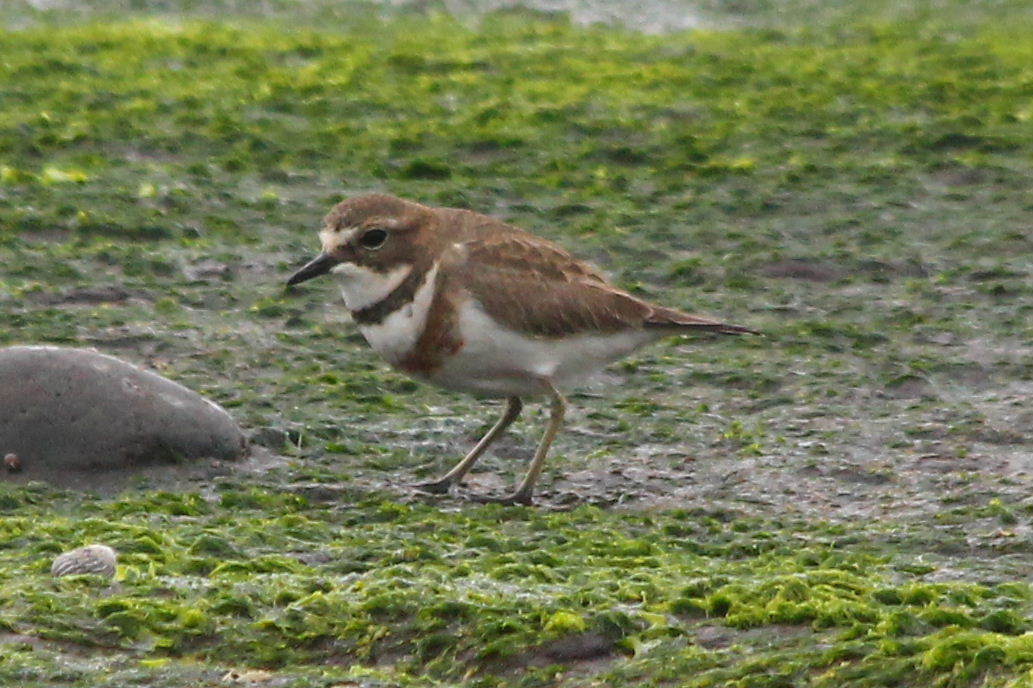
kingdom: Animalia
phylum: Chordata
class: Aves
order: Charadriiformes
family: Charadriidae
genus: Anarhynchus
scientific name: Anarhynchus
